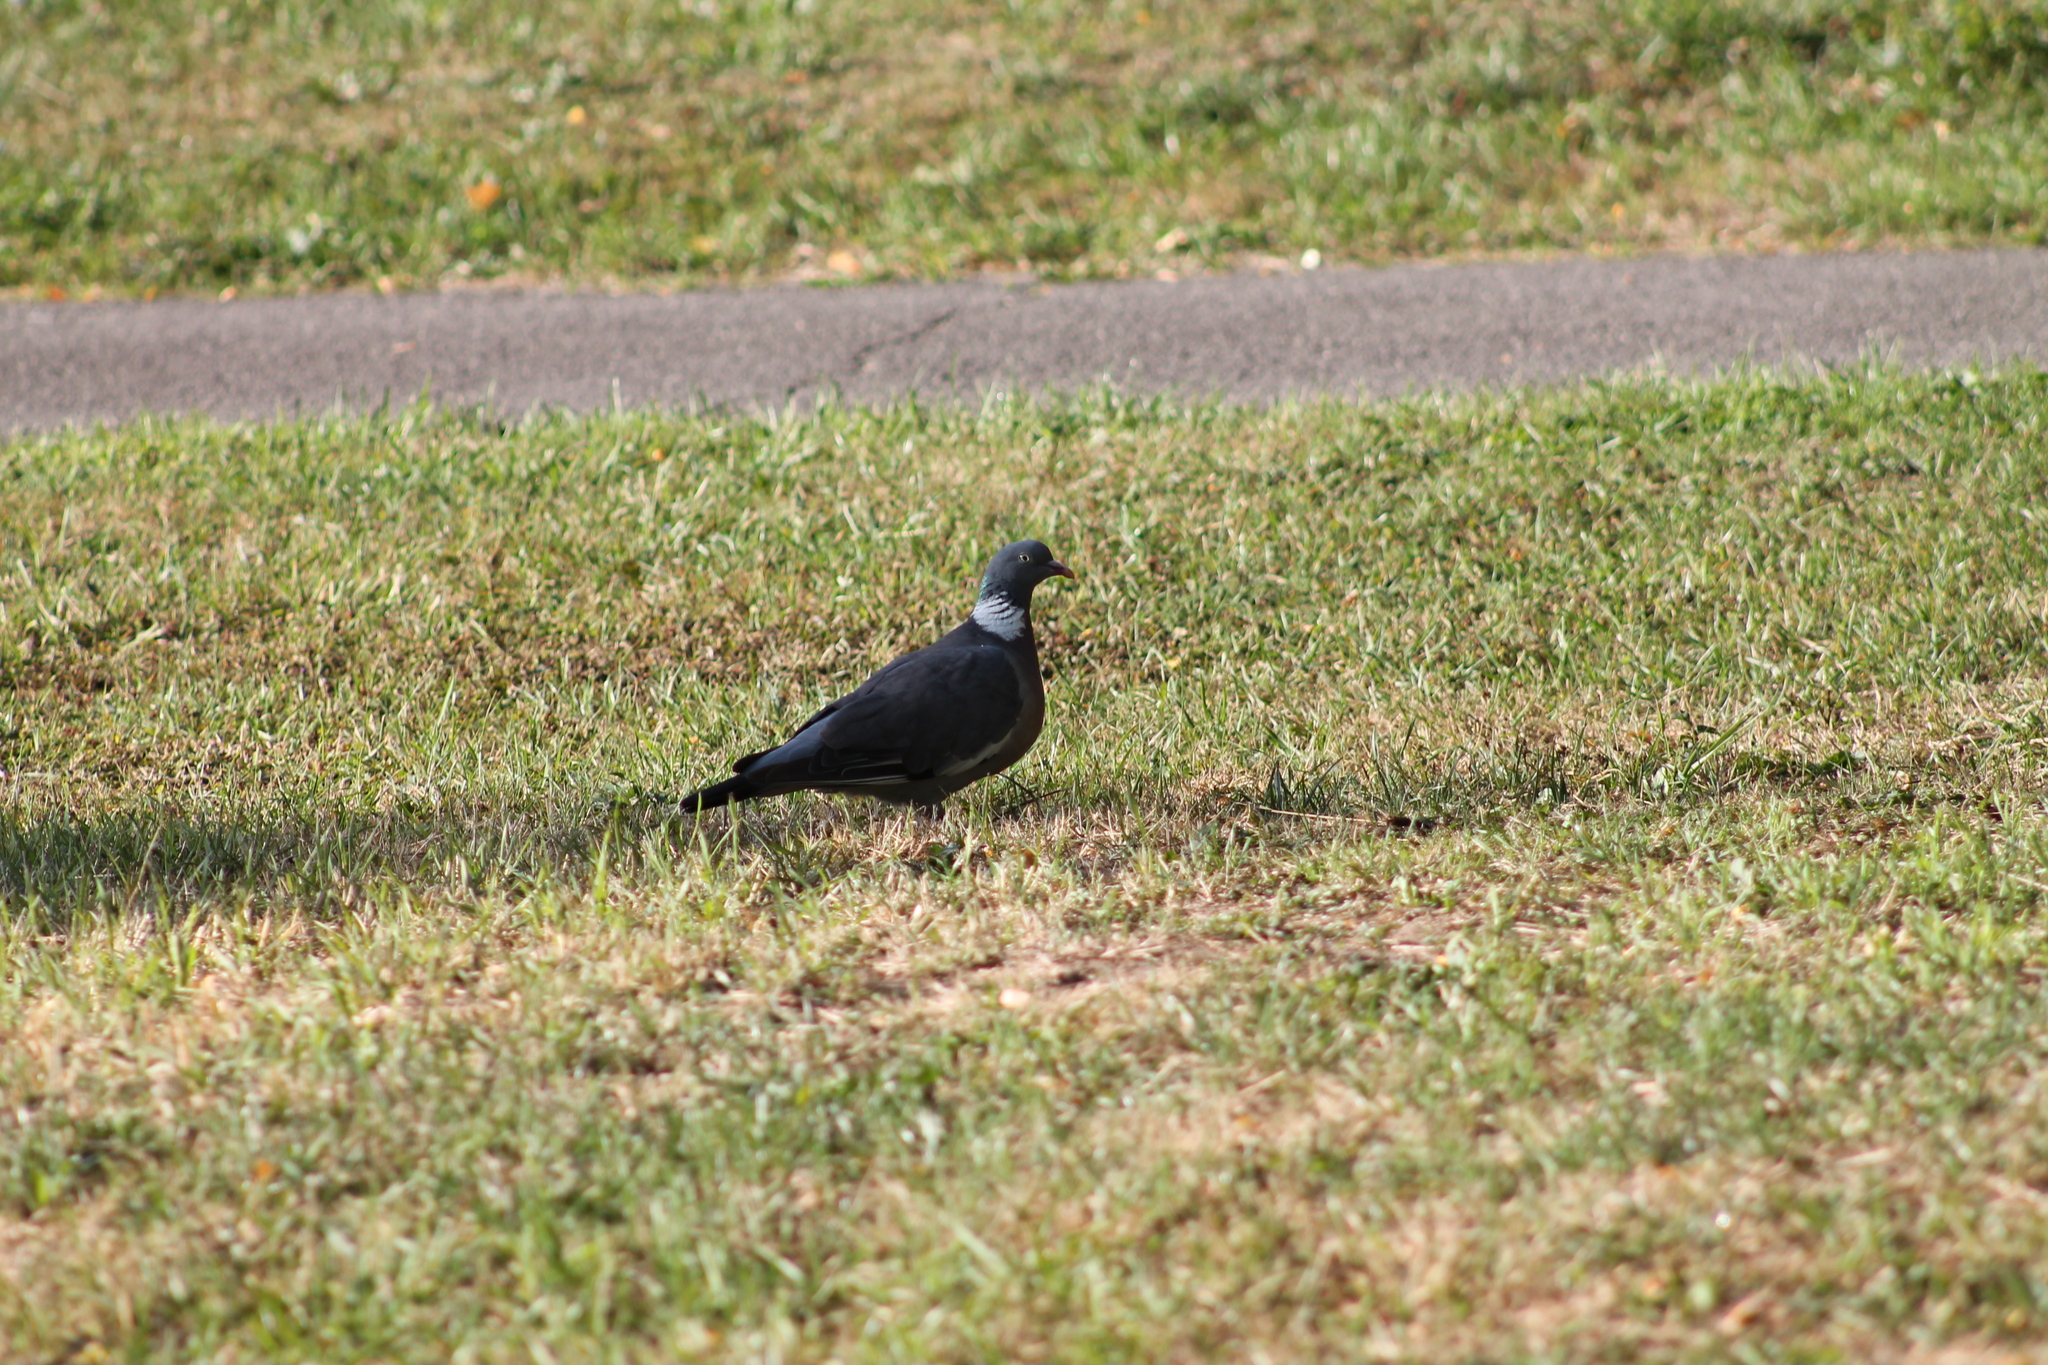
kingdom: Animalia
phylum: Chordata
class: Aves
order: Columbiformes
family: Columbidae
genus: Columba
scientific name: Columba palumbus
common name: Common wood pigeon
